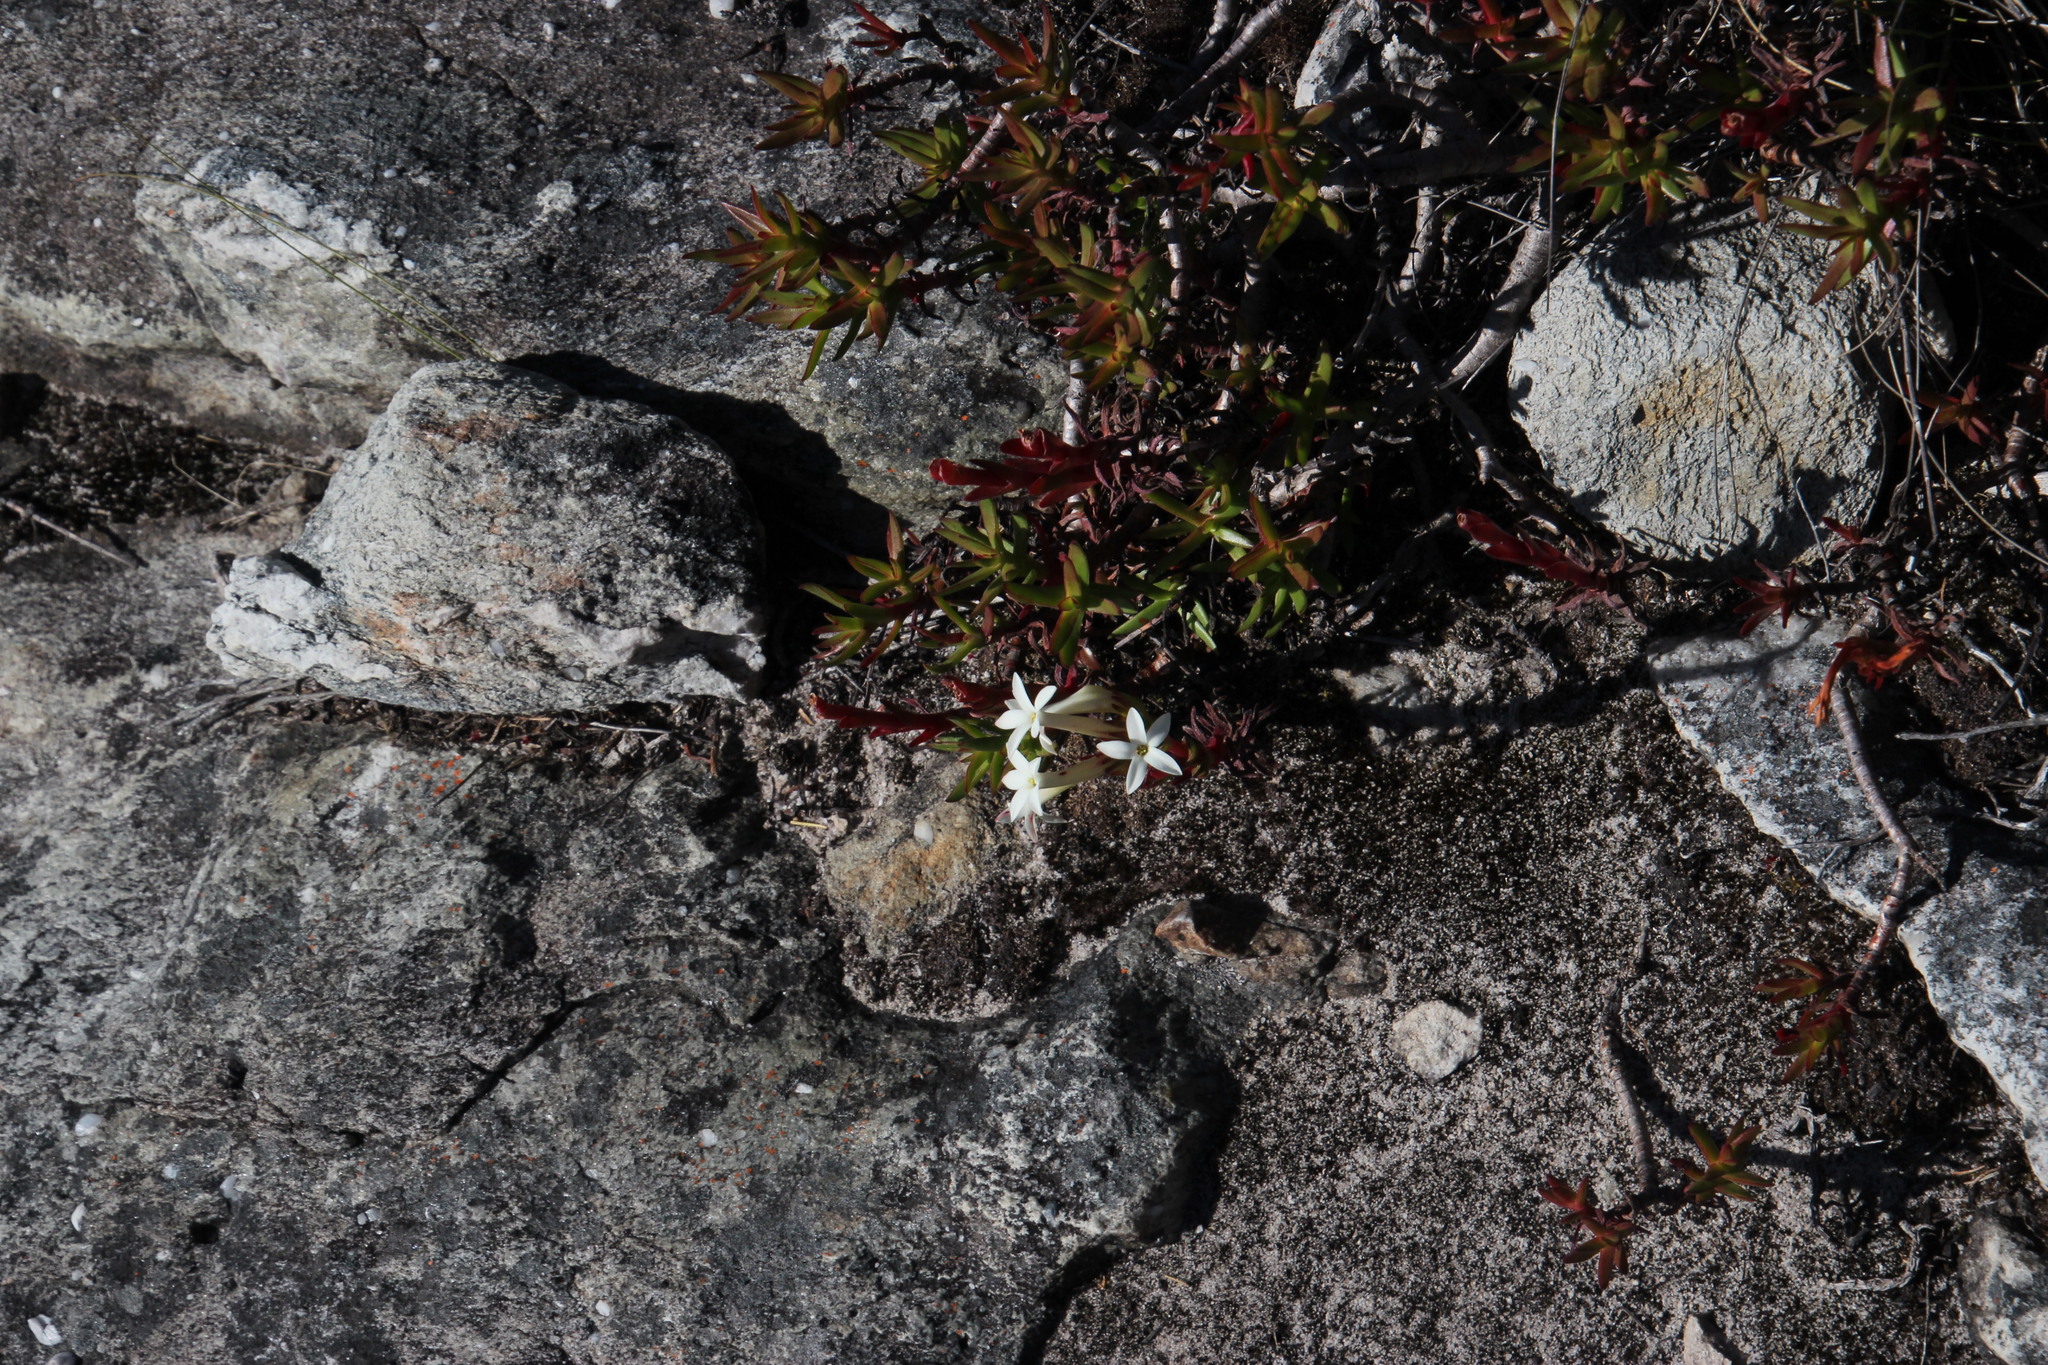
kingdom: Plantae
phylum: Tracheophyta
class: Magnoliopsida
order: Saxifragales
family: Crassulaceae
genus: Crassula
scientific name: Crassula fascicularis
